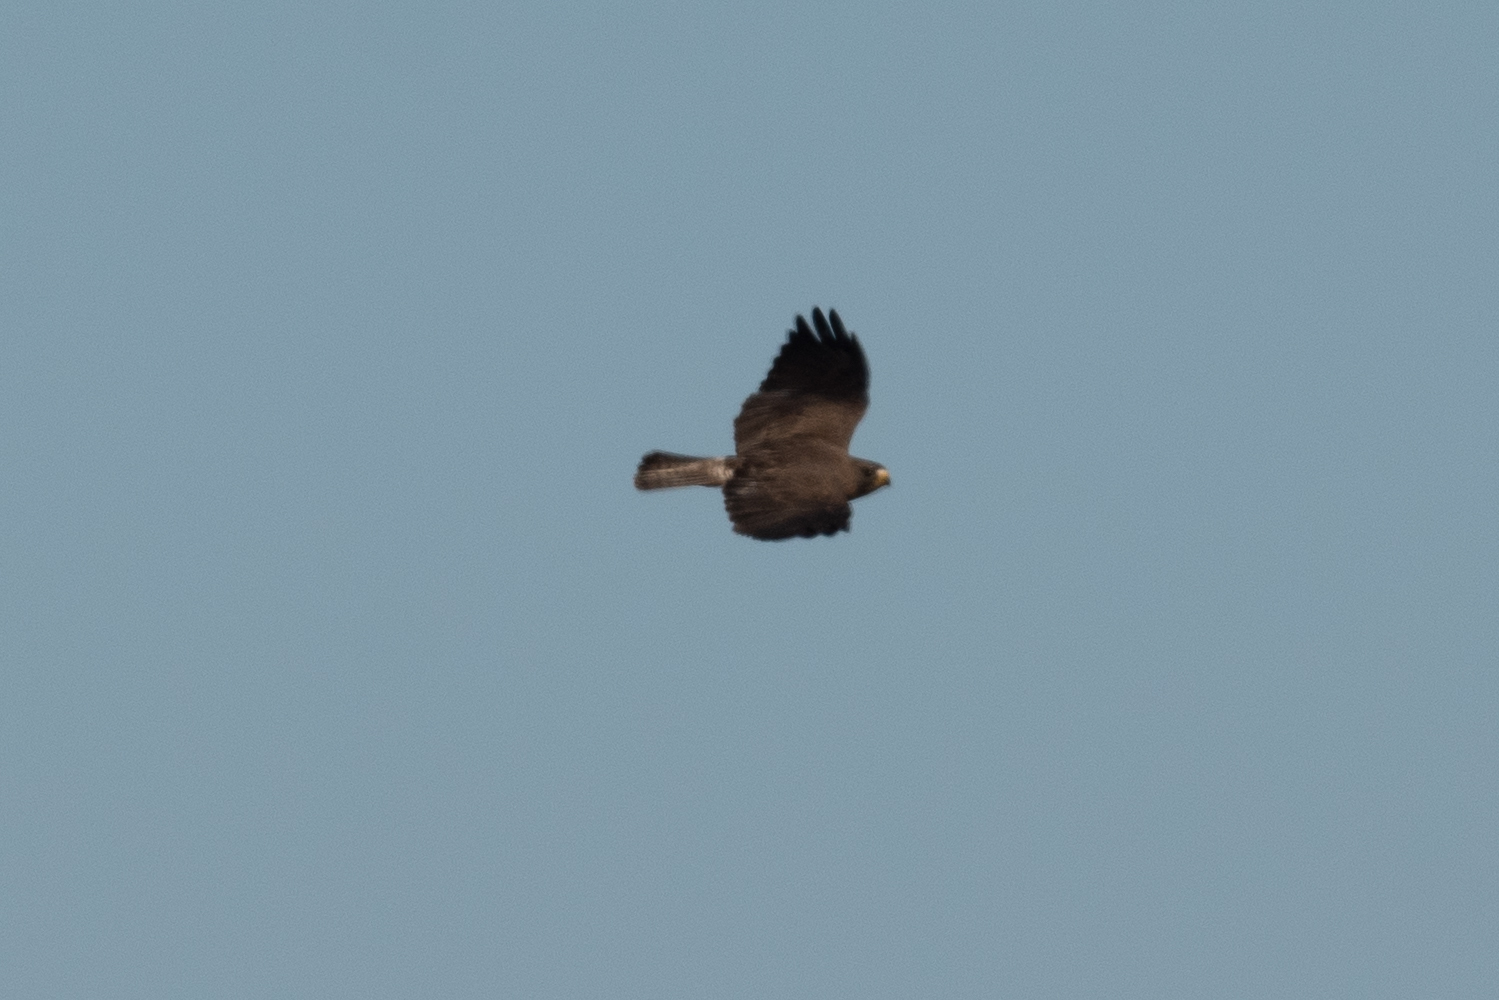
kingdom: Animalia
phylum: Chordata
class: Aves
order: Accipitriformes
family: Accipitridae
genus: Buteo
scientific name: Buteo swainsoni
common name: Swainson's hawk
